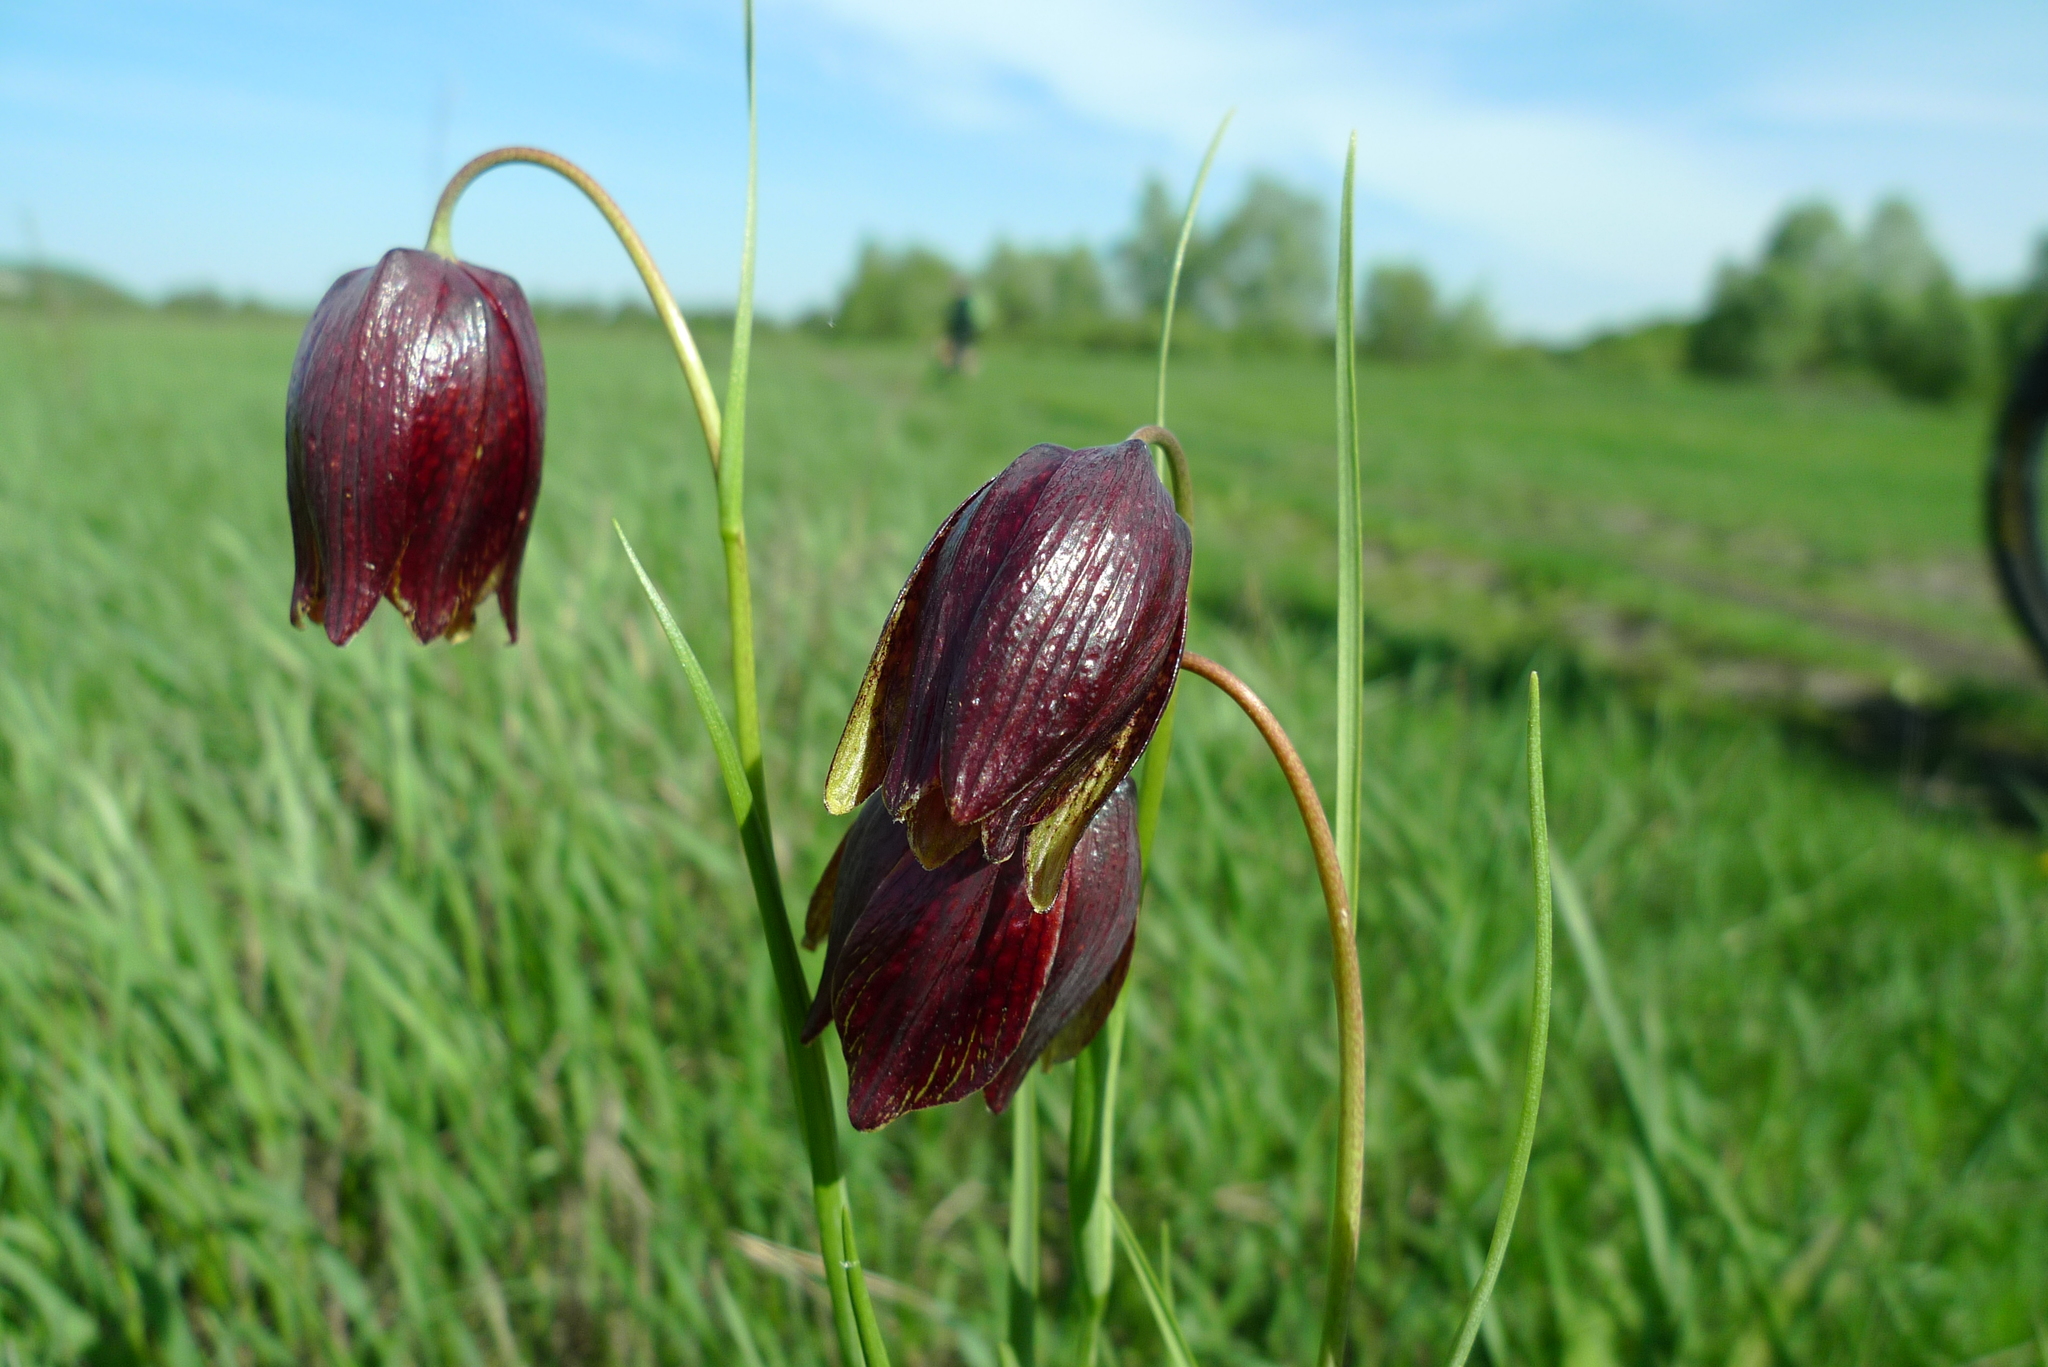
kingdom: Plantae
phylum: Tracheophyta
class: Liliopsida
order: Liliales
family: Liliaceae
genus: Fritillaria
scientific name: Fritillaria meleagroides
